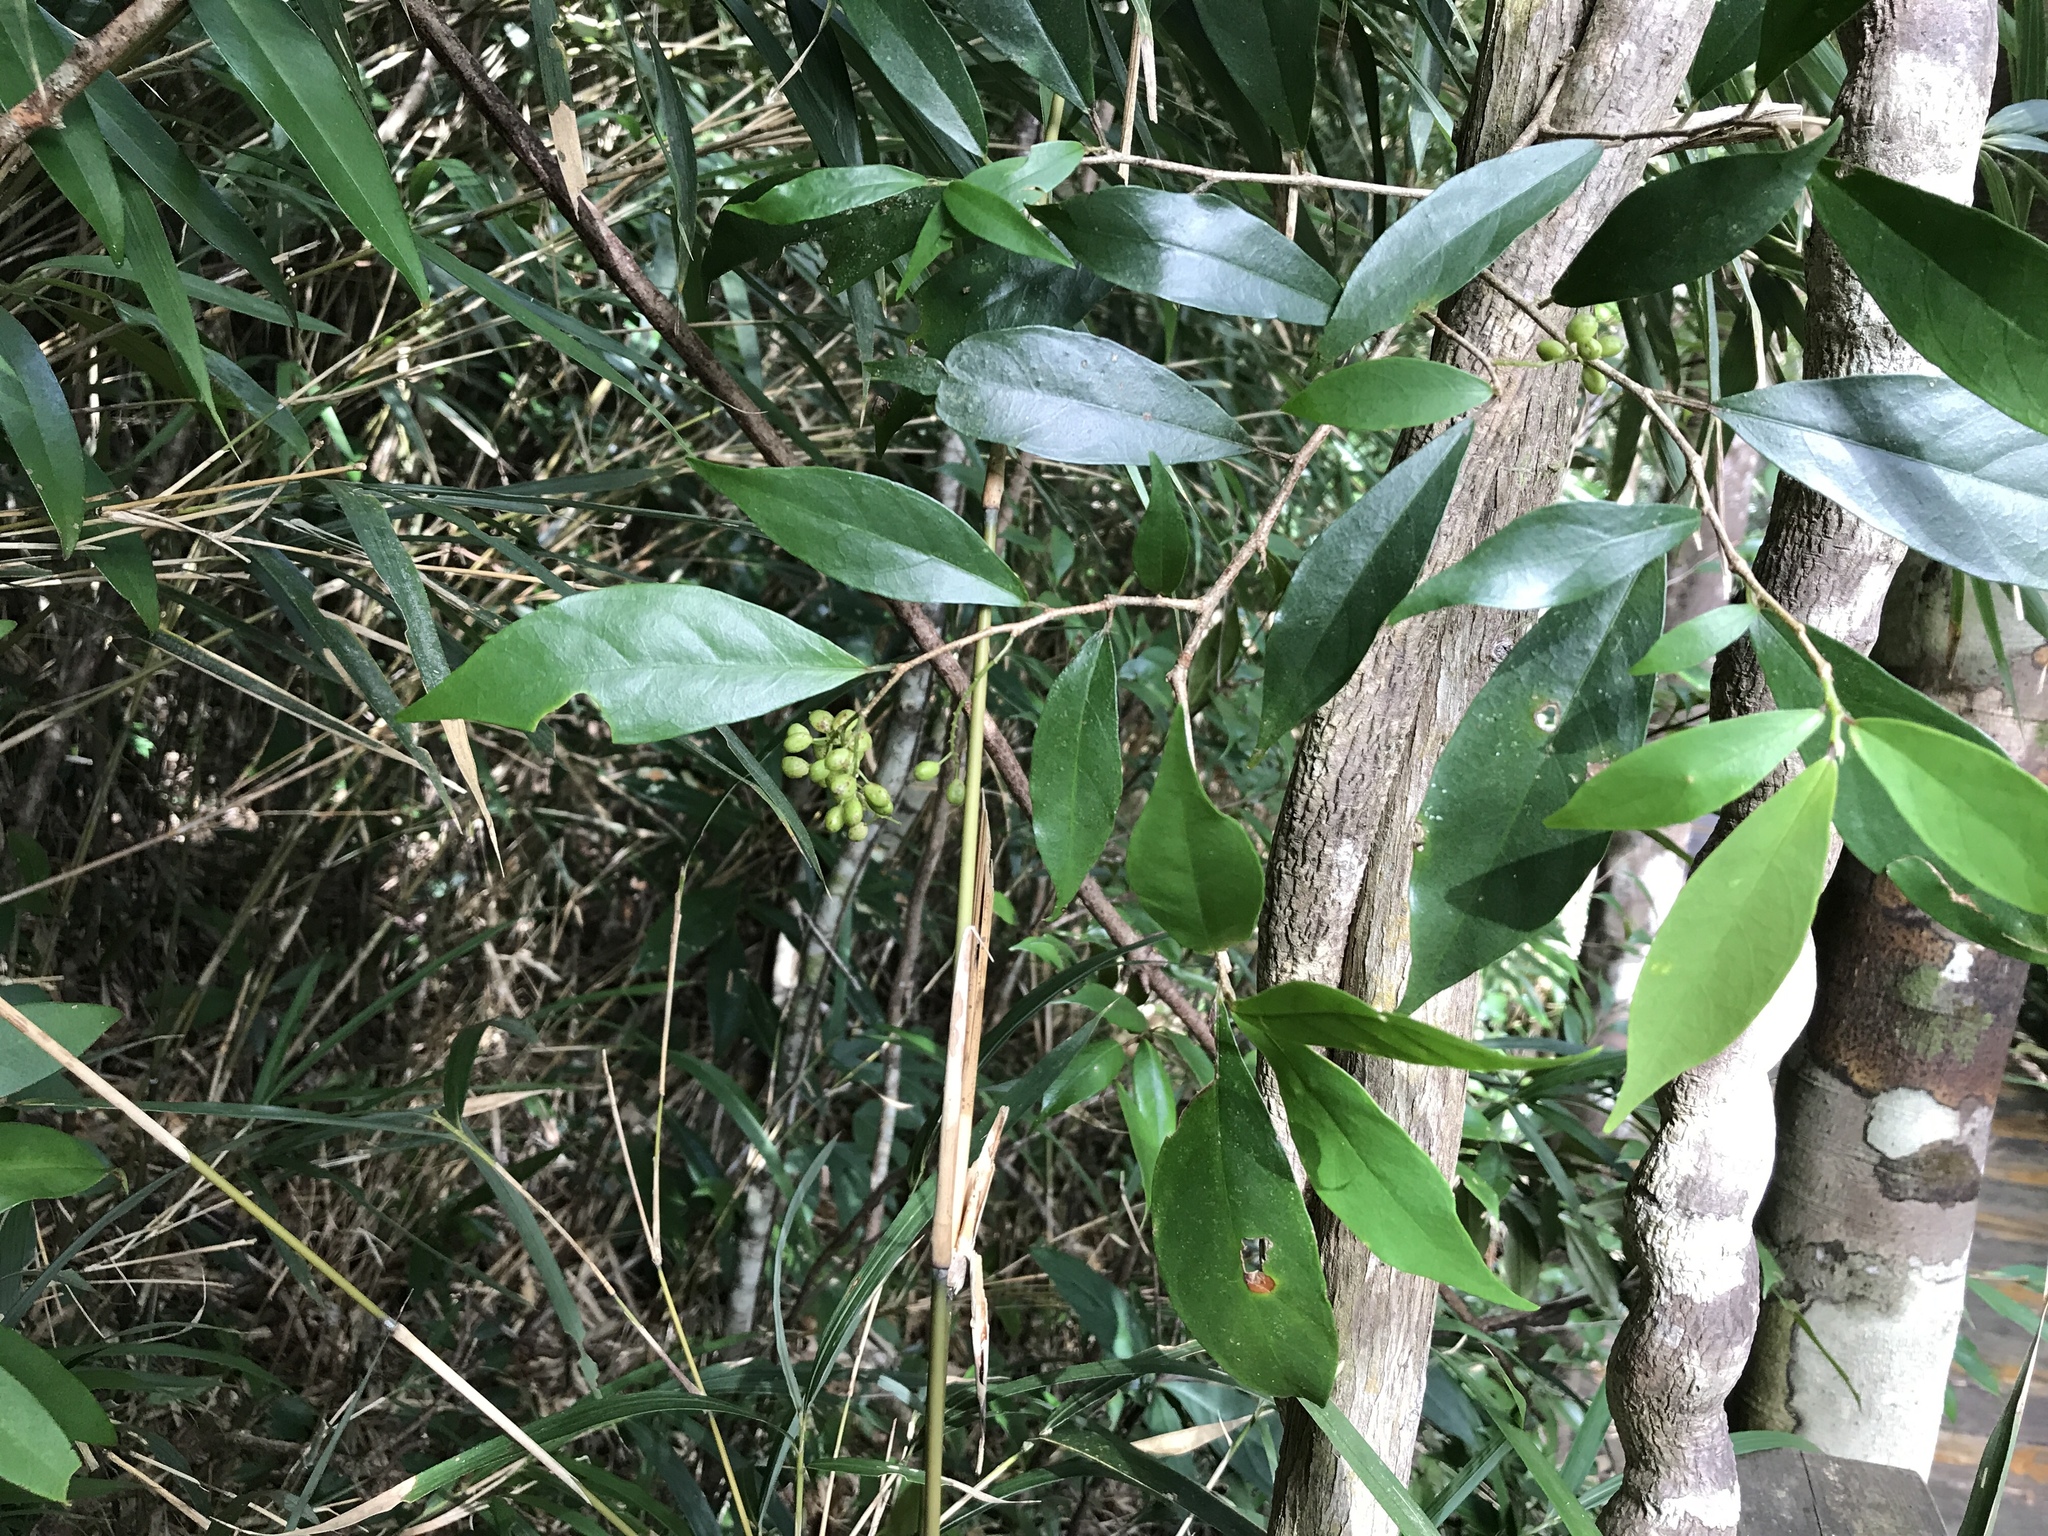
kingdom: Plantae
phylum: Tracheophyta
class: Magnoliopsida
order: Malpighiales
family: Phyllanthaceae
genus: Antidesma
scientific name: Antidesma japonicum
